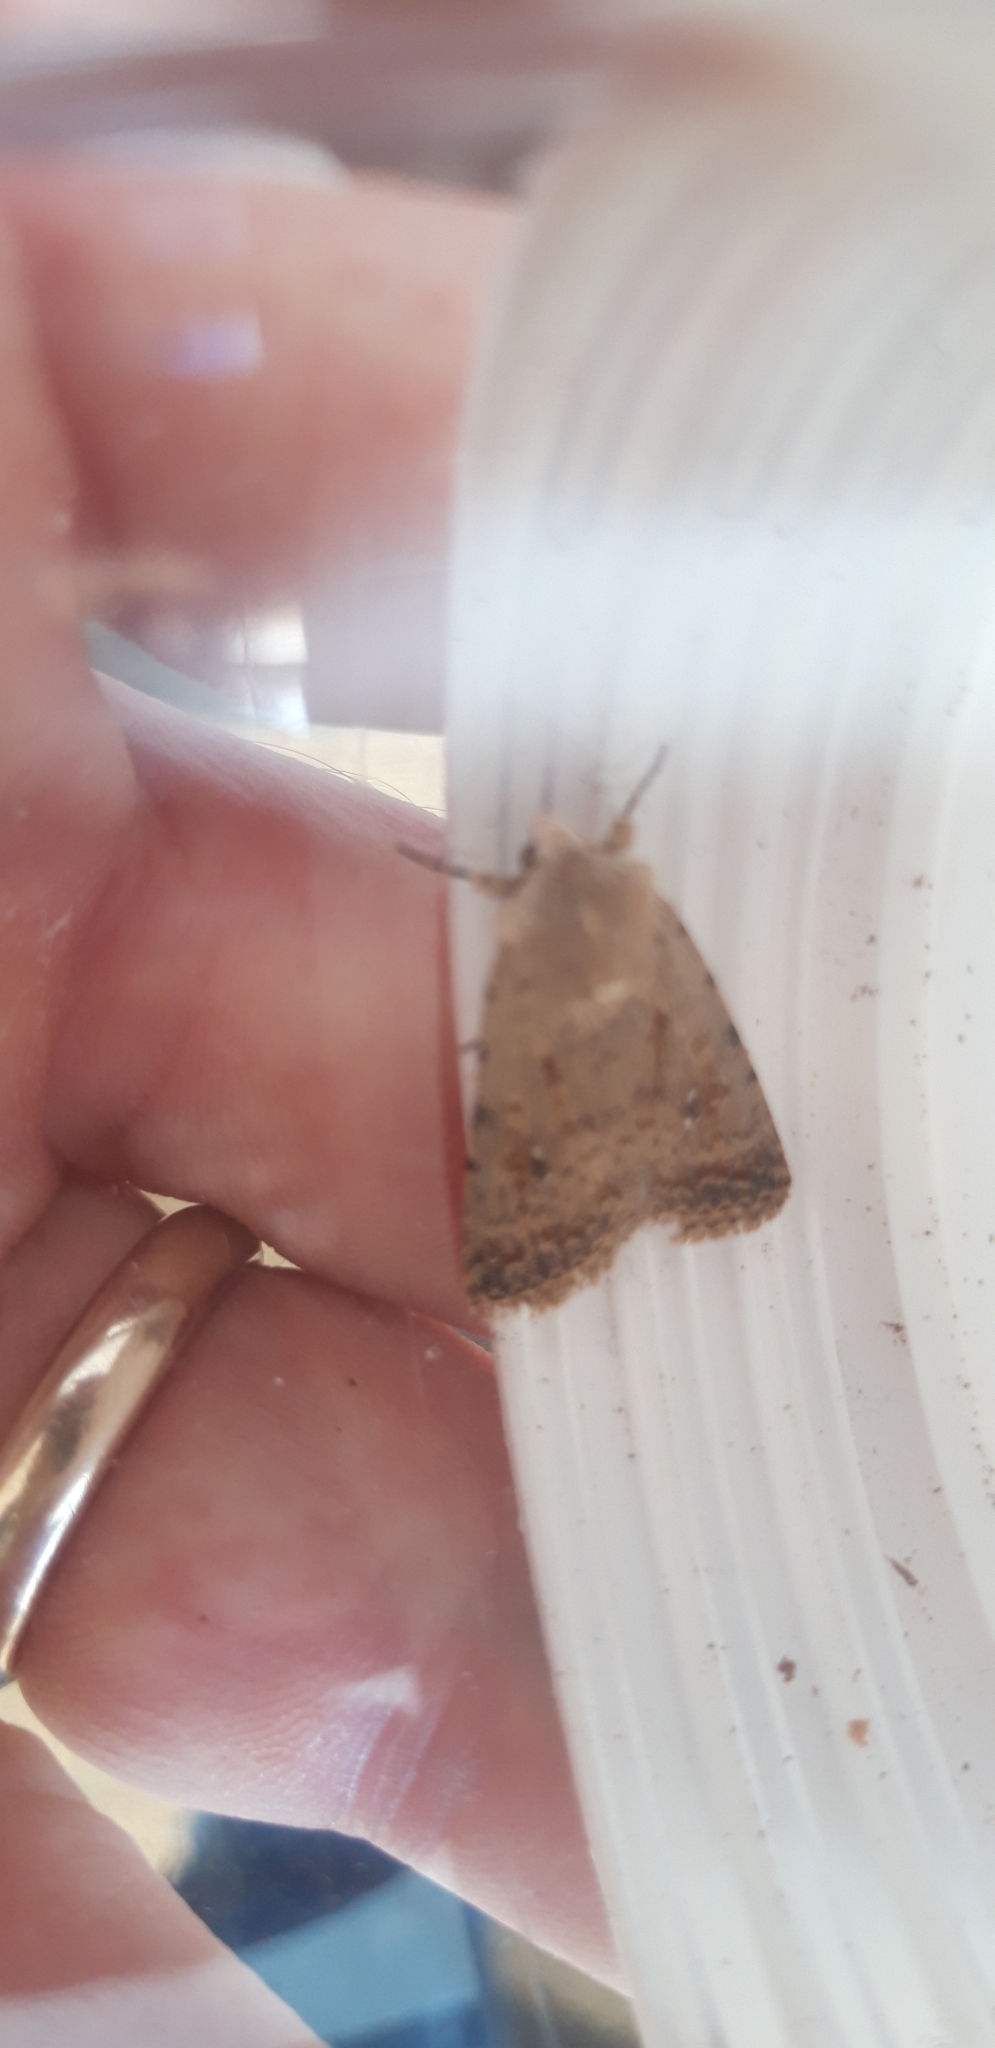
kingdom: Animalia
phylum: Arthropoda
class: Insecta
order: Lepidoptera
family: Noctuidae
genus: Caradrina
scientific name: Caradrina clavipalpis
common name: Pale mottled willow
